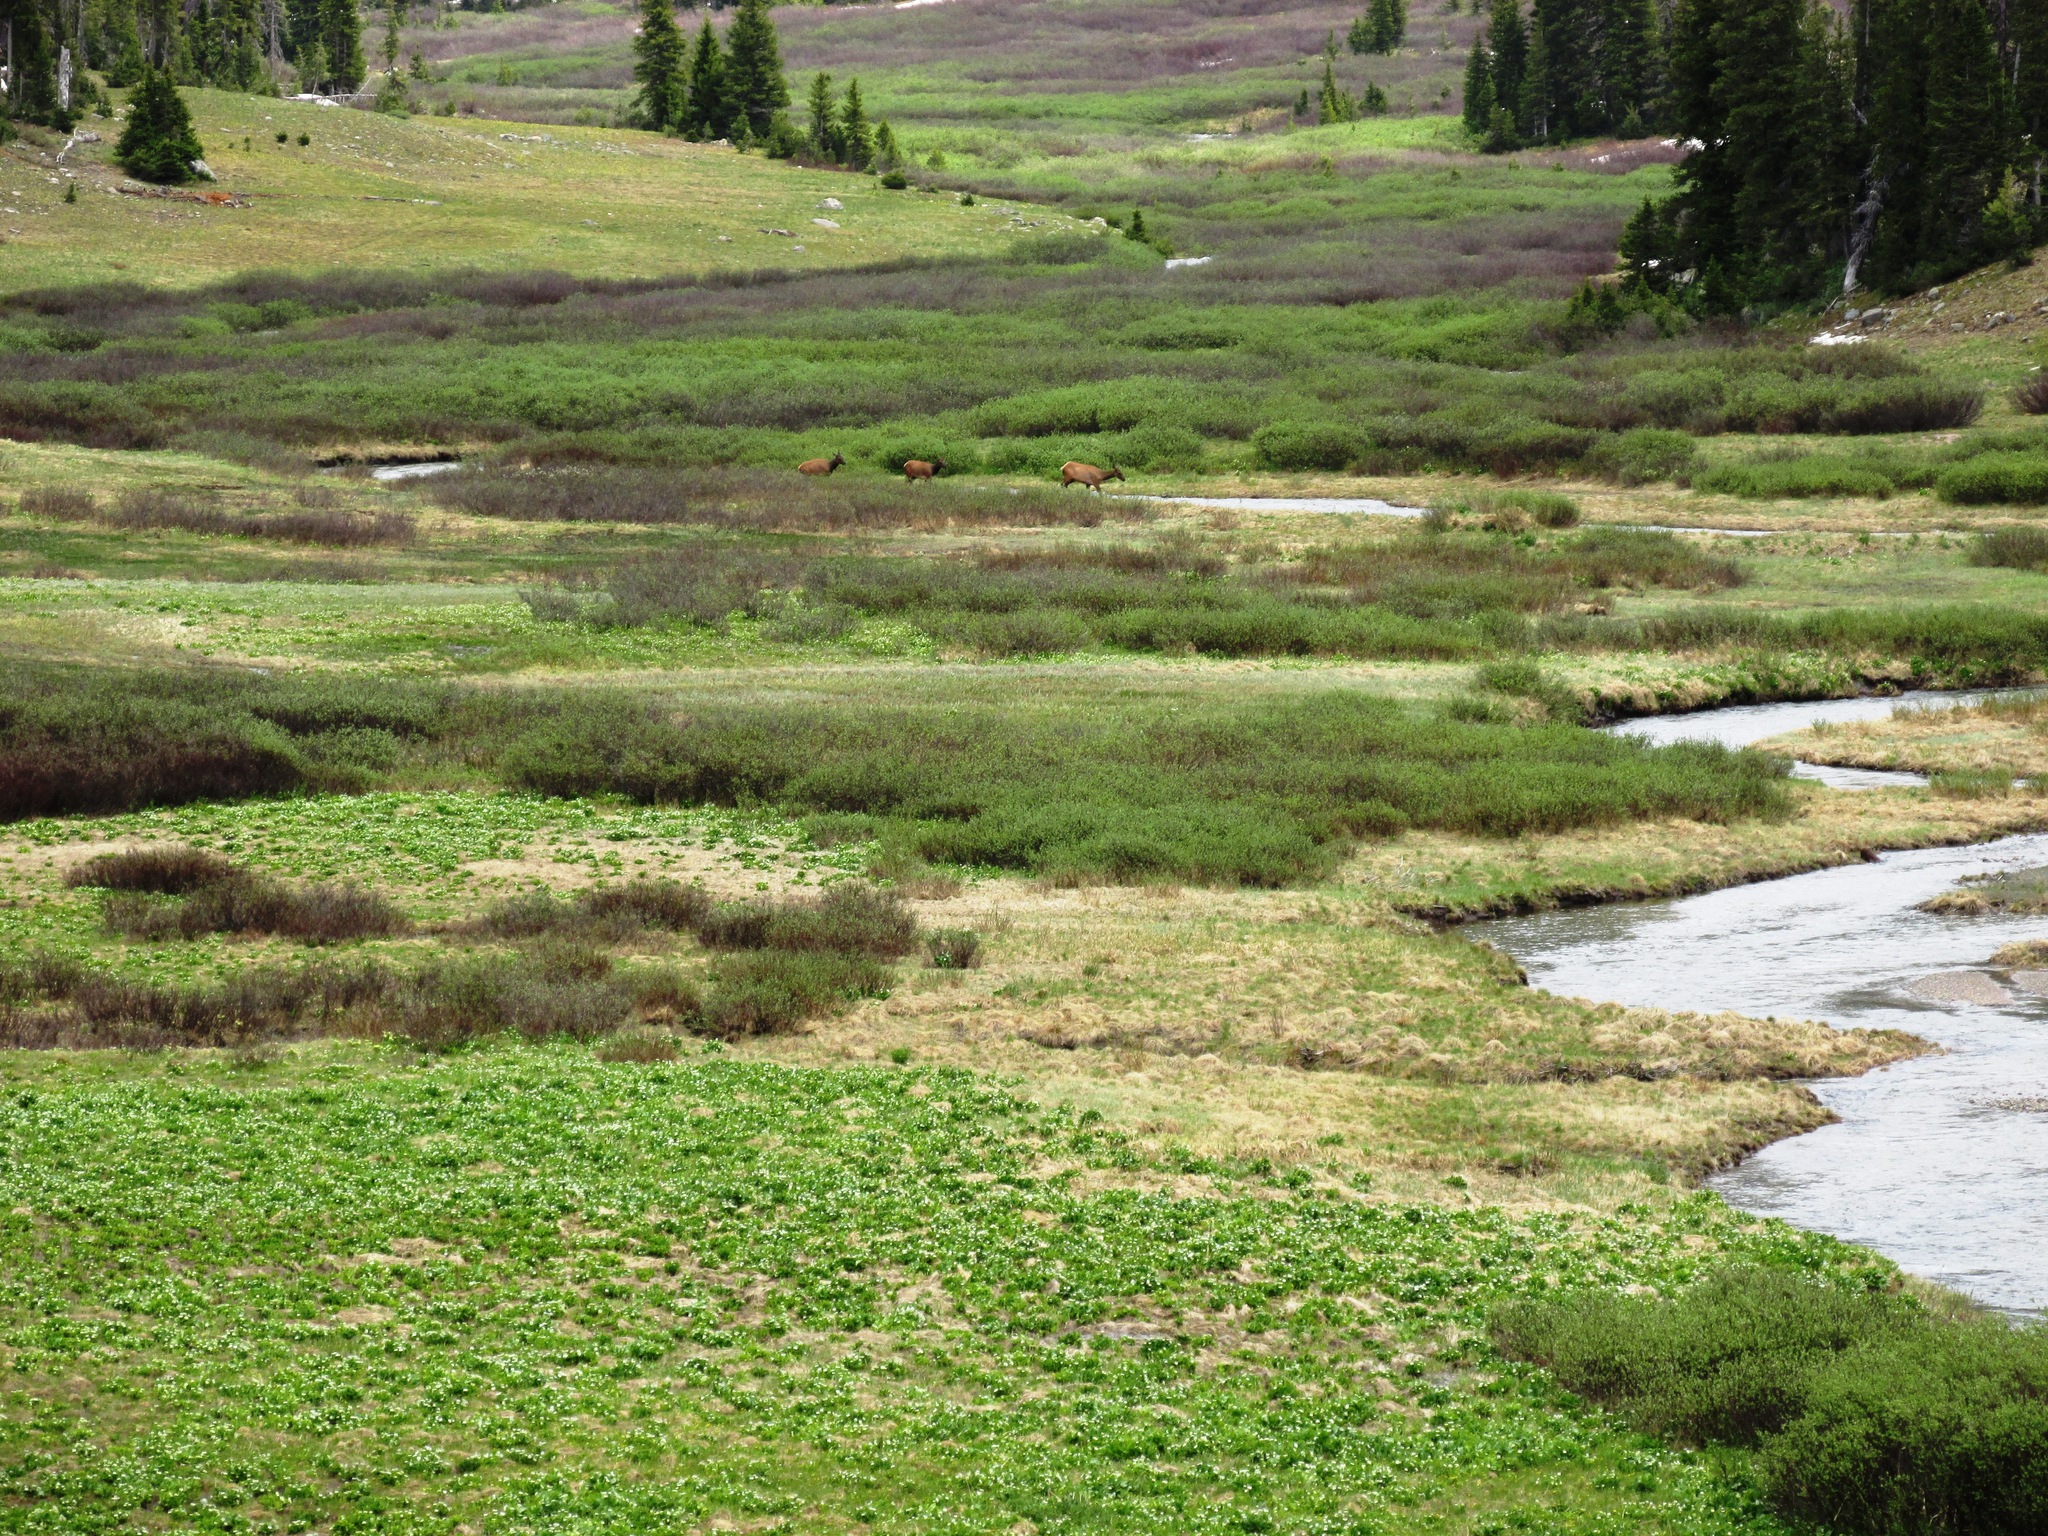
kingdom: Animalia
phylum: Chordata
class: Mammalia
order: Artiodactyla
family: Cervidae
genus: Cervus
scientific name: Cervus elaphus
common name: Red deer
